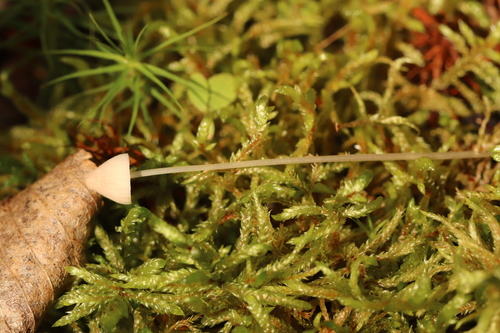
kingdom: Fungi
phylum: Basidiomycota
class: Agaricomycetes
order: Agaricales
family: Mycenaceae
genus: Mycena
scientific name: Mycena mirata
